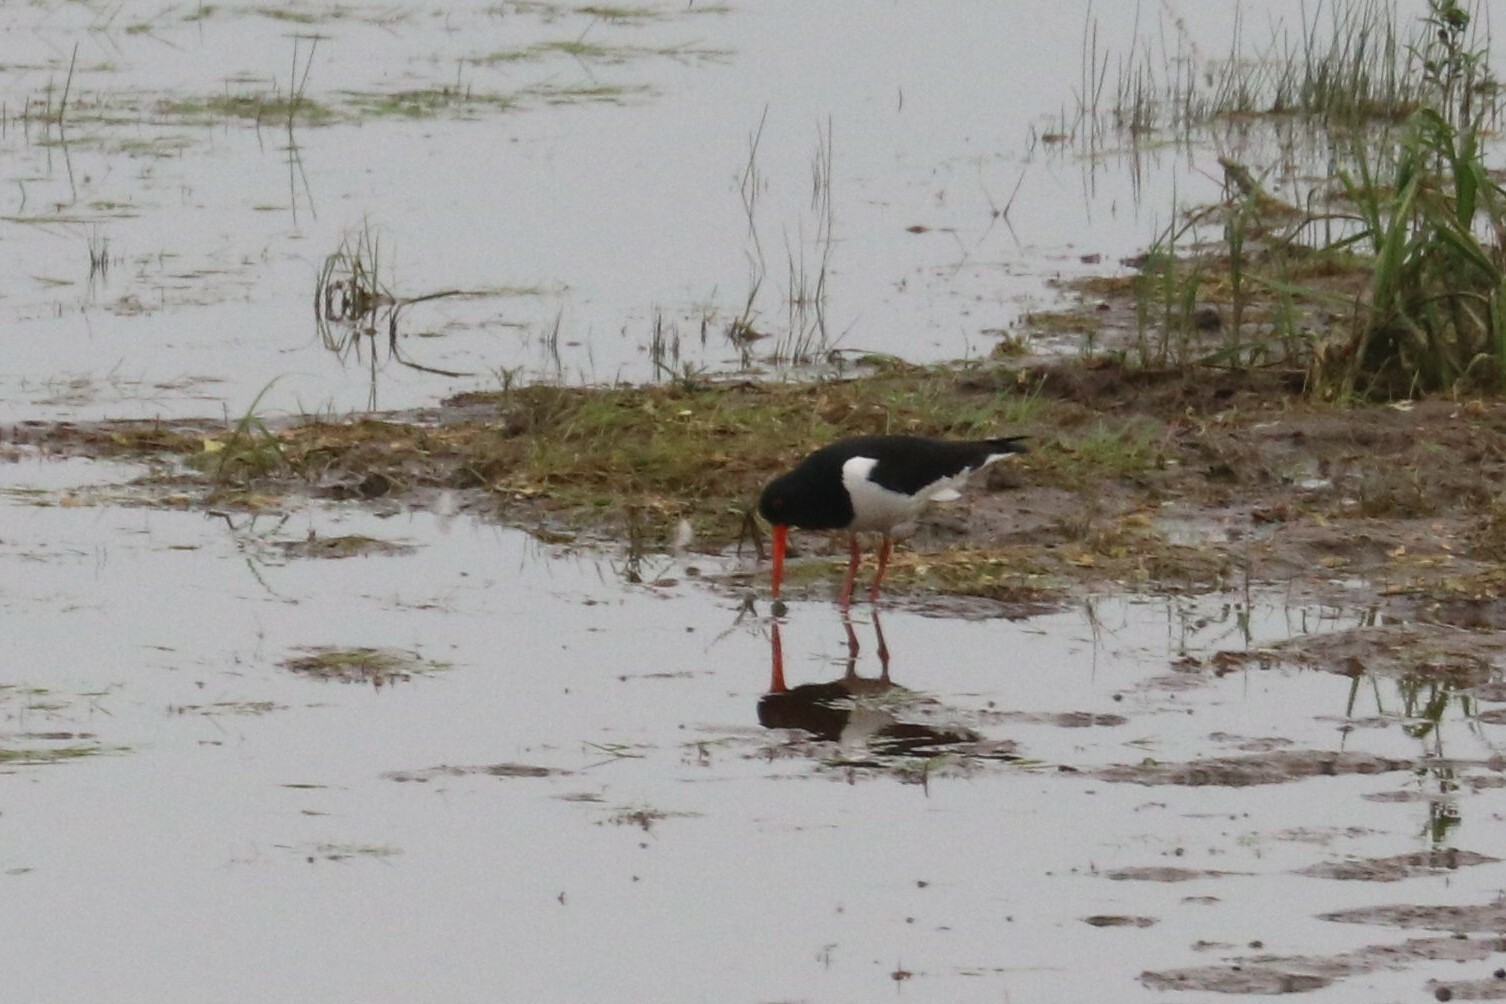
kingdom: Animalia
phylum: Chordata
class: Aves
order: Charadriiformes
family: Haematopodidae
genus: Haematopus
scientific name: Haematopus ostralegus
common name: Eurasian oystercatcher
